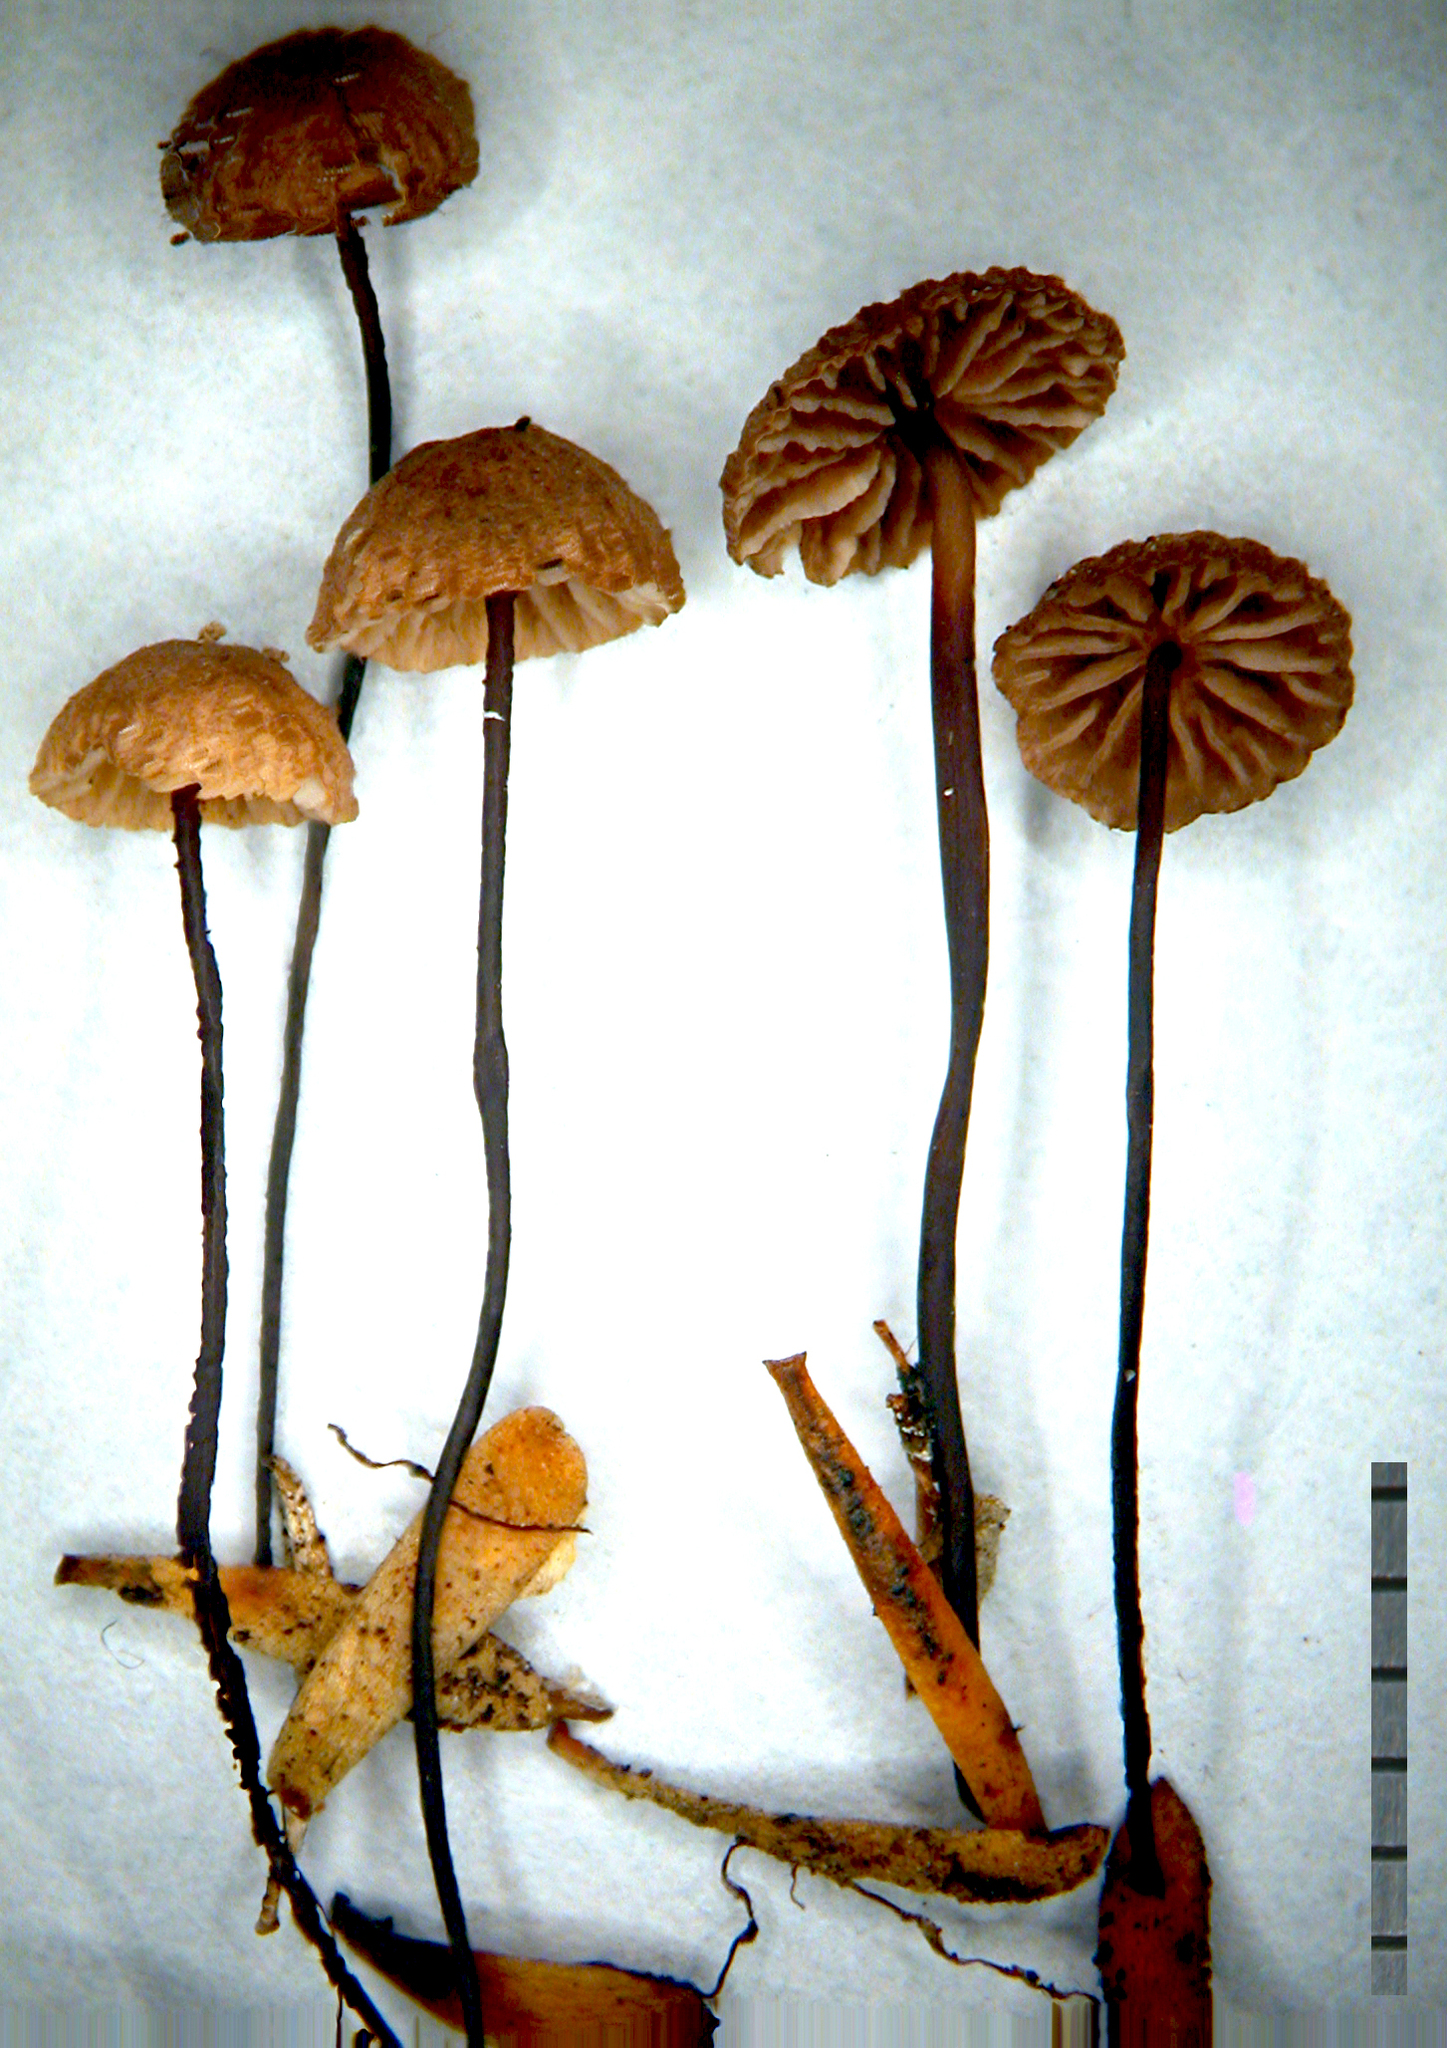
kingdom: Fungi
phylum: Basidiomycota
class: Agaricomycetes
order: Agaricales
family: Omphalotaceae
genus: Gymnopus
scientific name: Gymnopus
